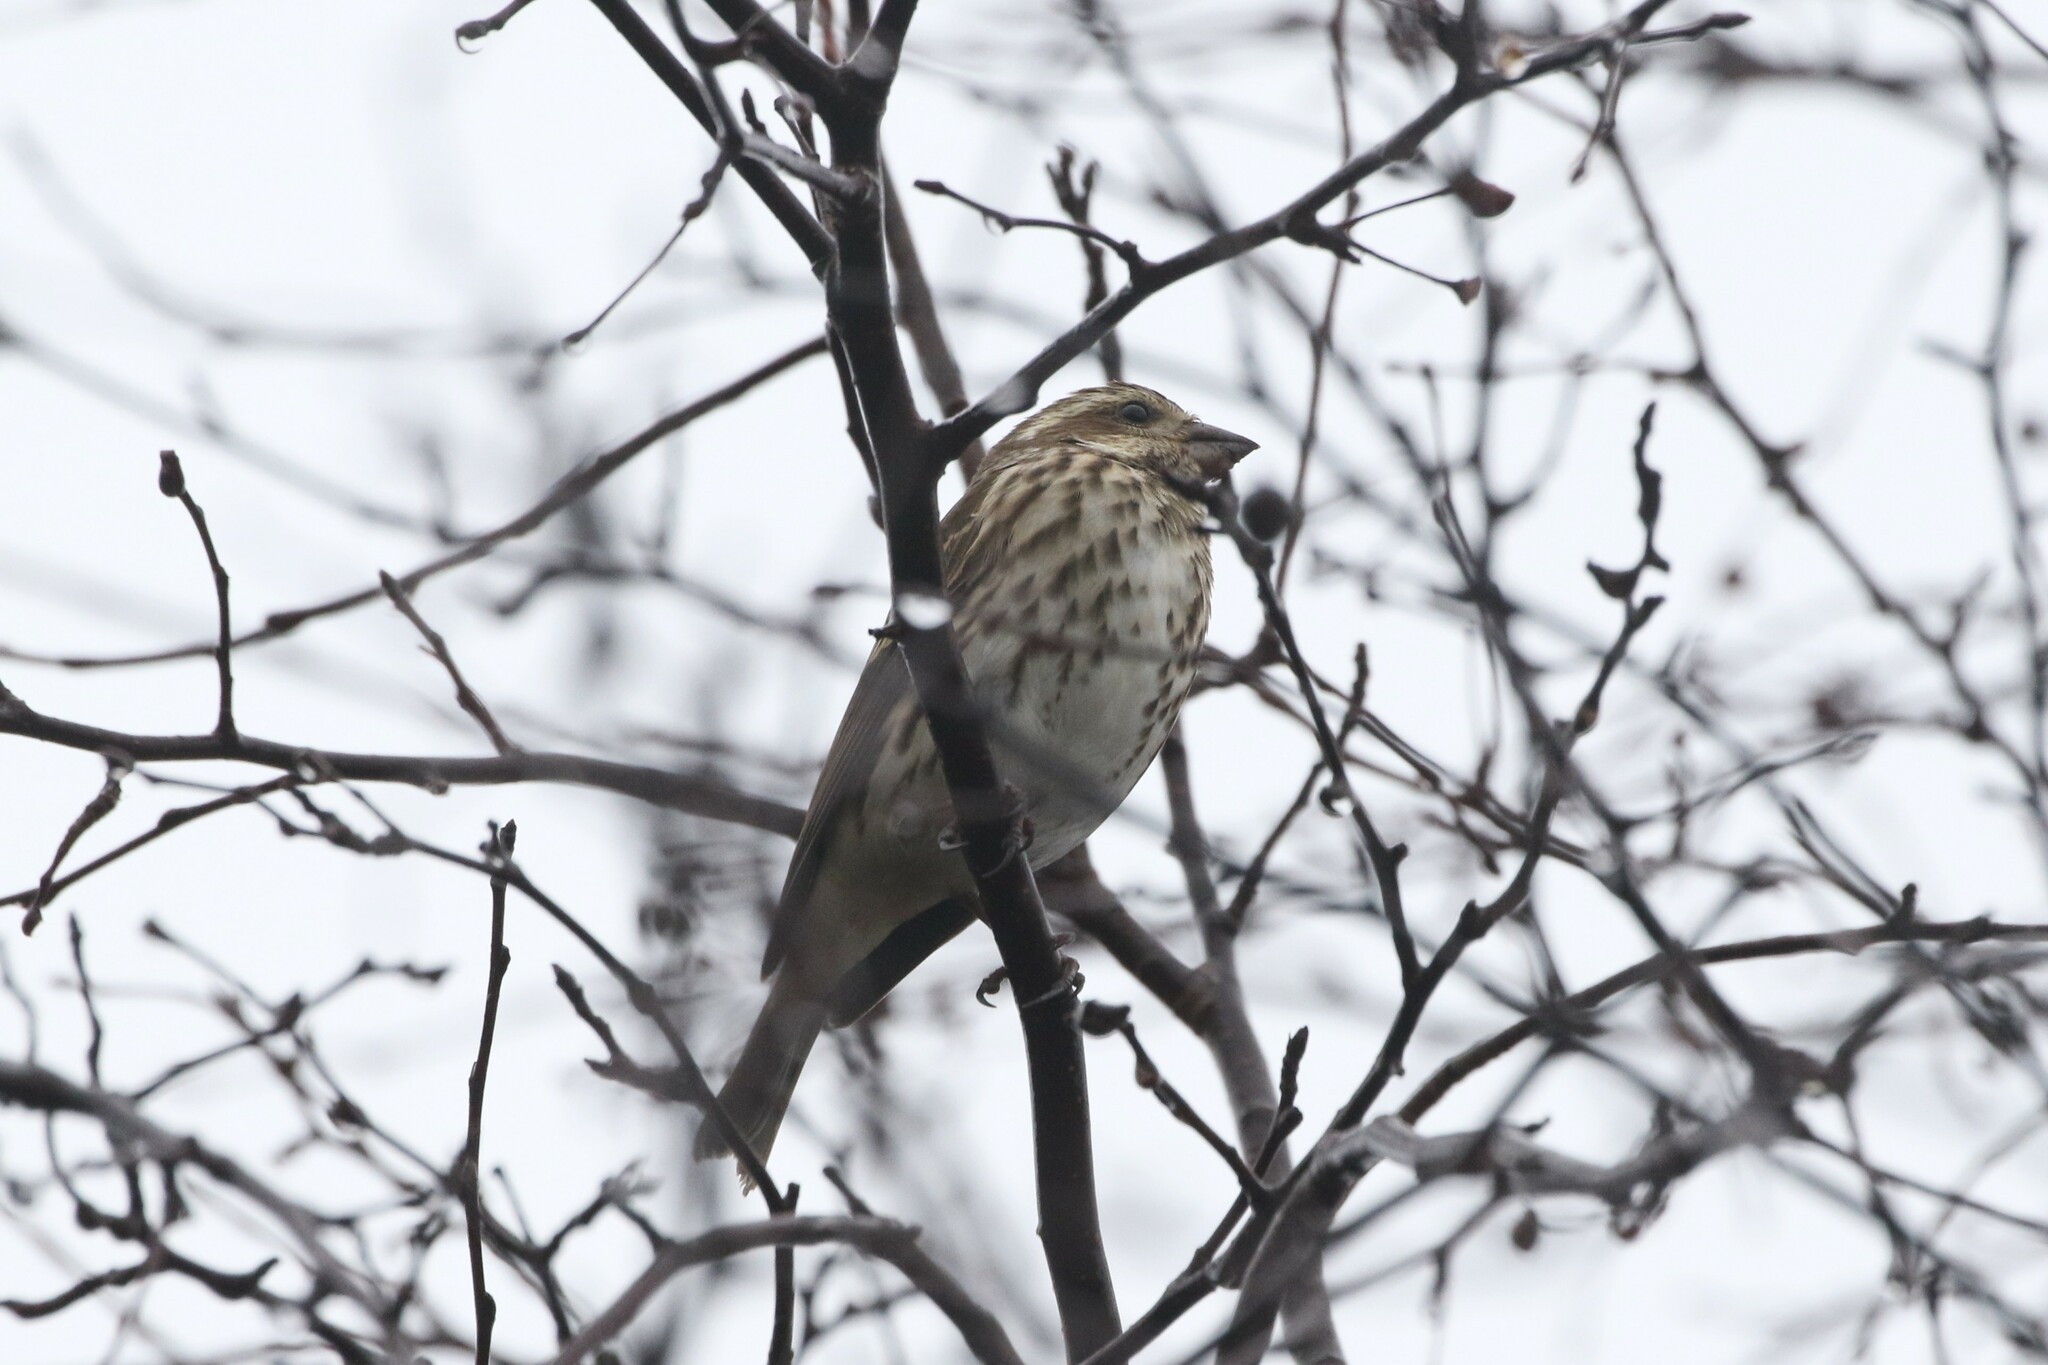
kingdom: Animalia
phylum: Chordata
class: Aves
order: Passeriformes
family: Fringillidae
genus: Haemorhous
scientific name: Haemorhous purpureus
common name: Purple finch
